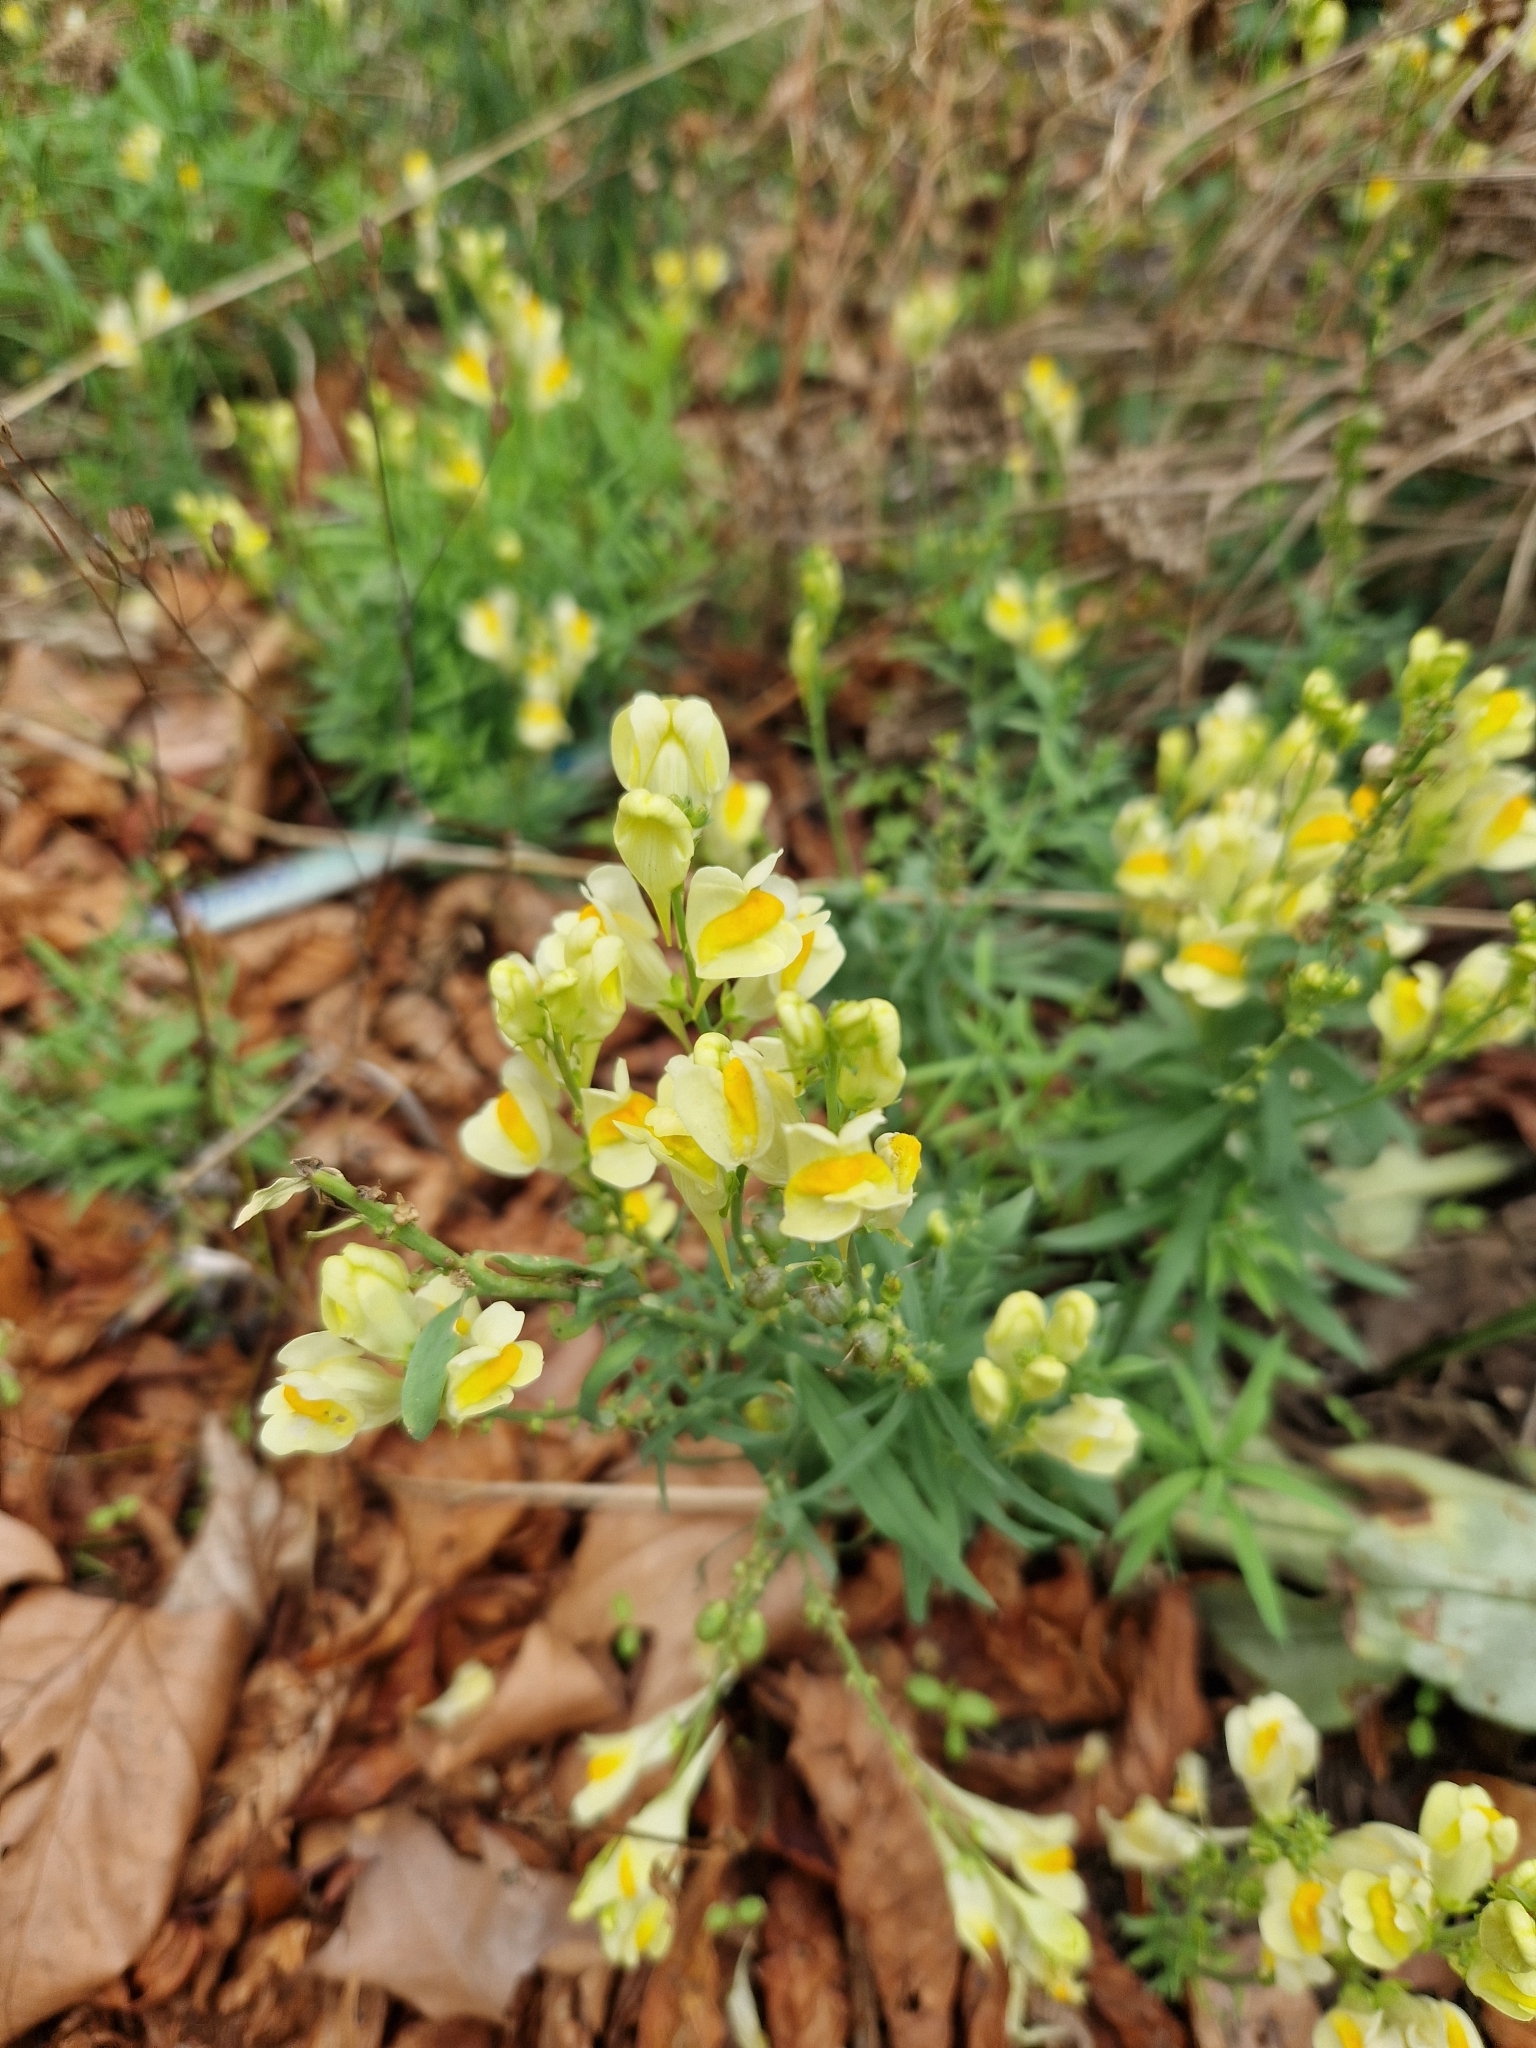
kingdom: Plantae
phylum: Tracheophyta
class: Magnoliopsida
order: Lamiales
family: Plantaginaceae
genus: Linaria
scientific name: Linaria vulgaris
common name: Butter and eggs
